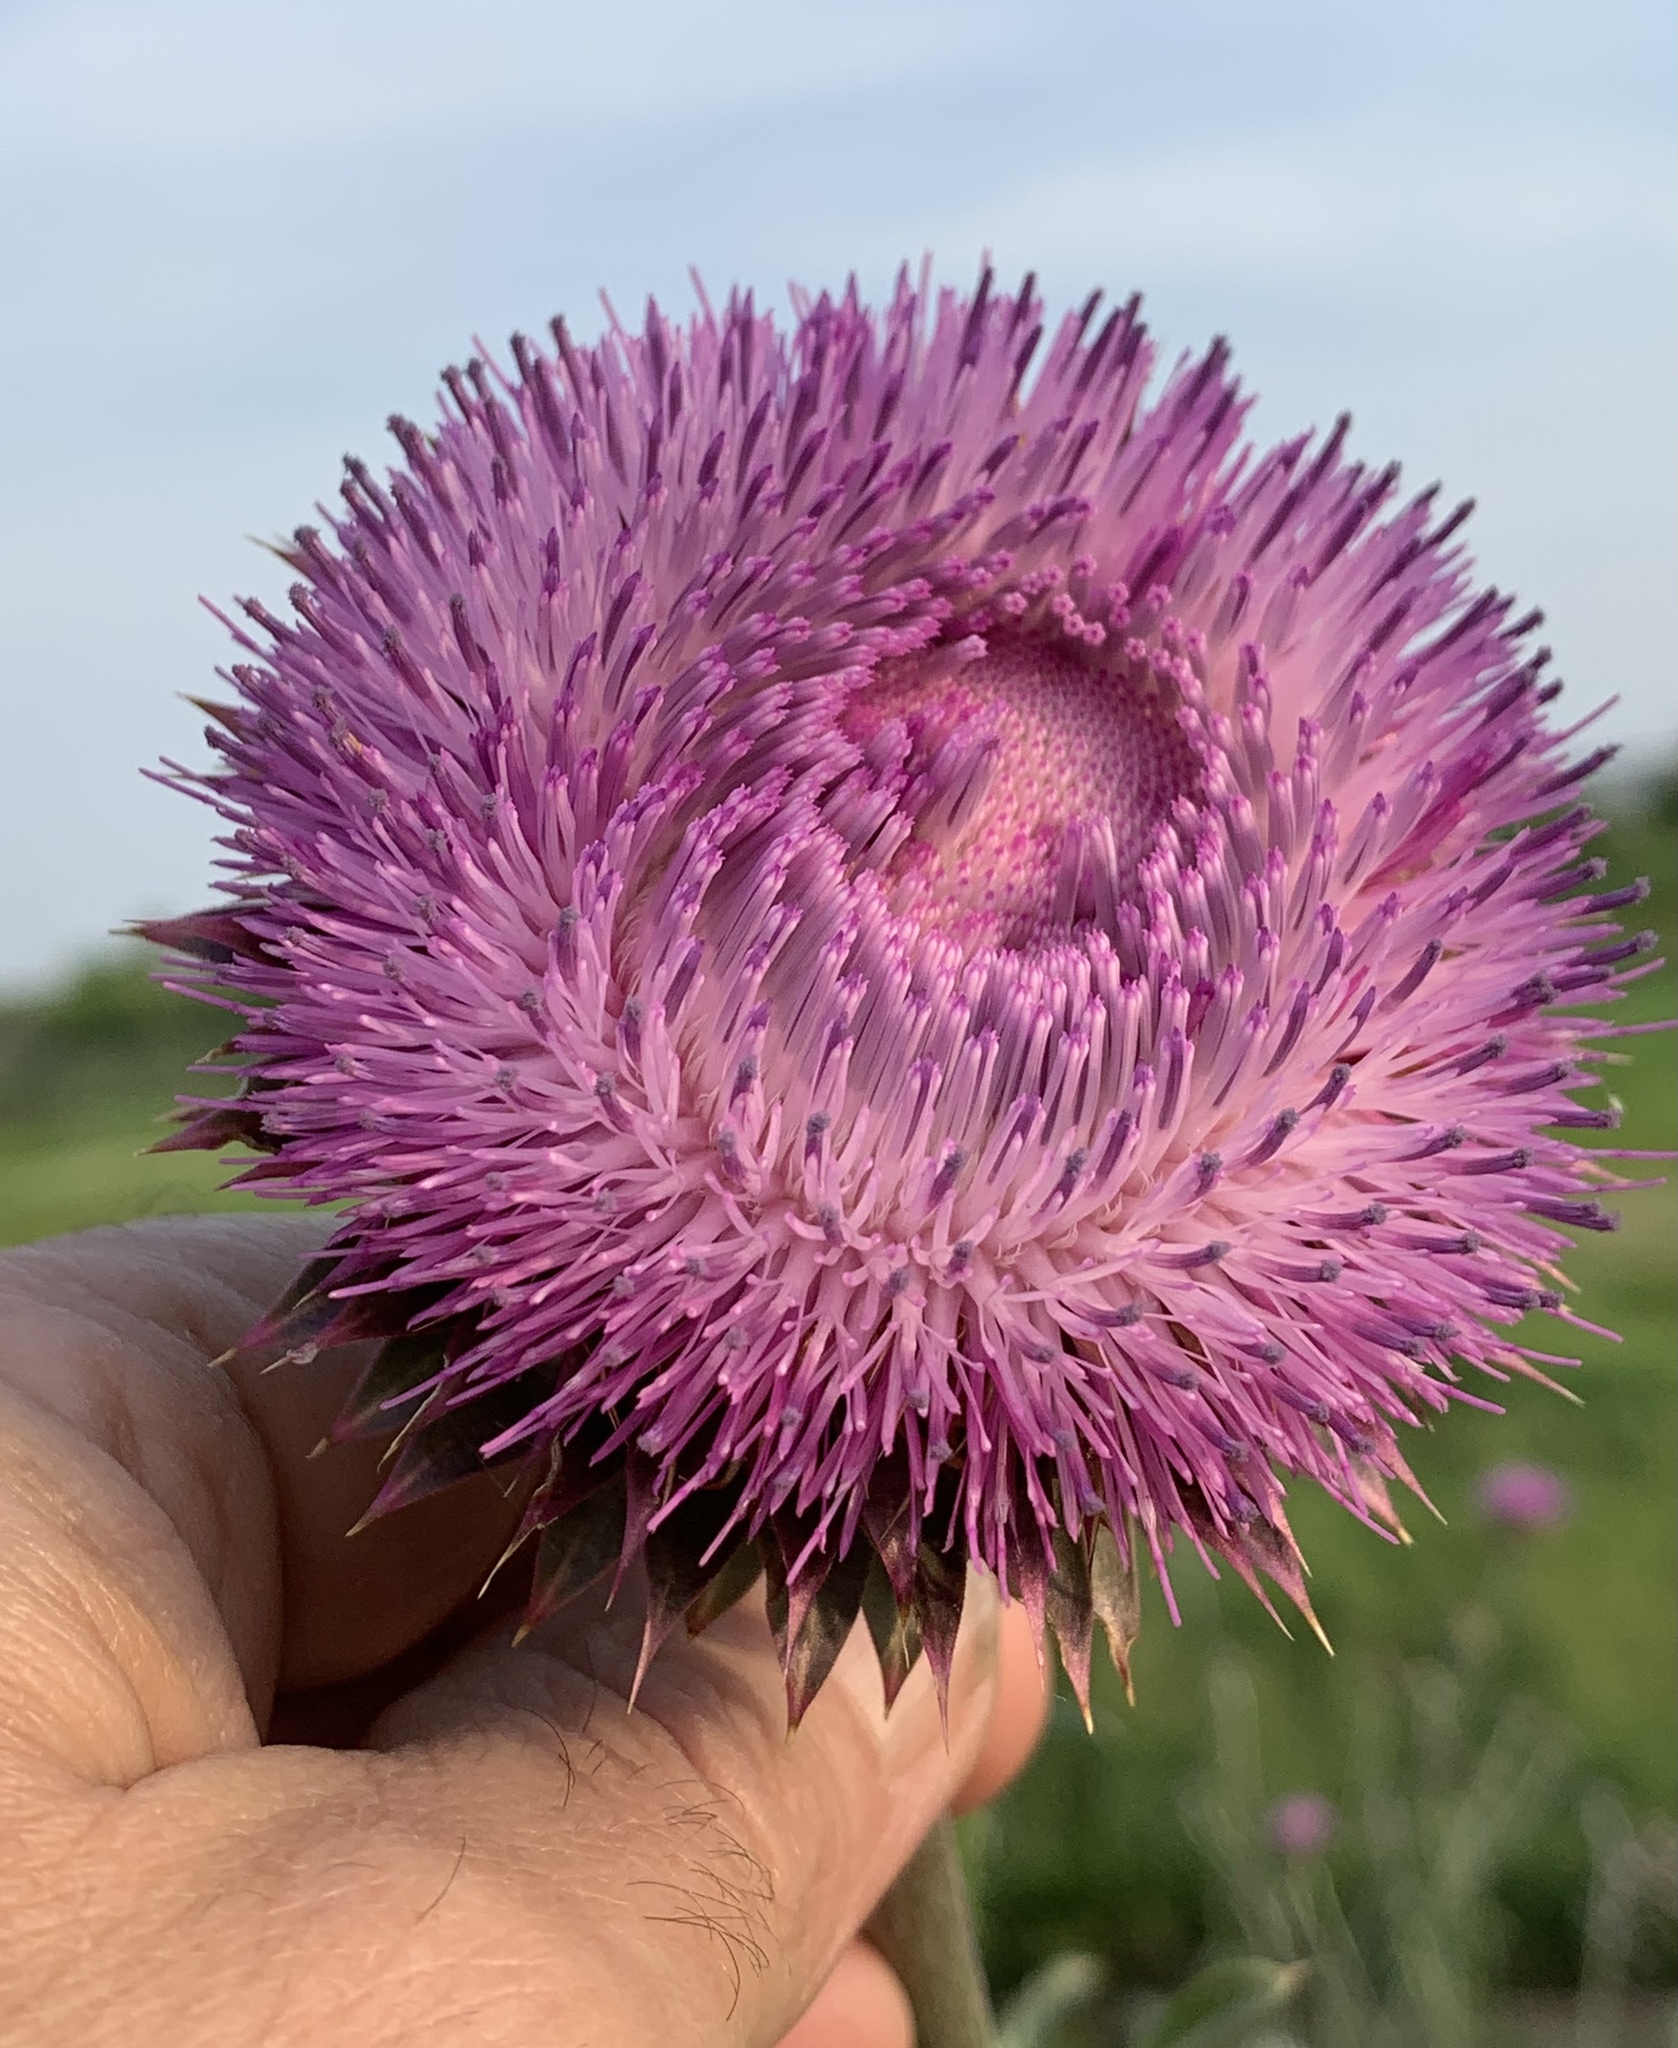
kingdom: Plantae
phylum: Tracheophyta
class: Magnoliopsida
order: Asterales
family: Asteraceae
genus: Carduus
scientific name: Carduus nutans
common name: Musk thistle
